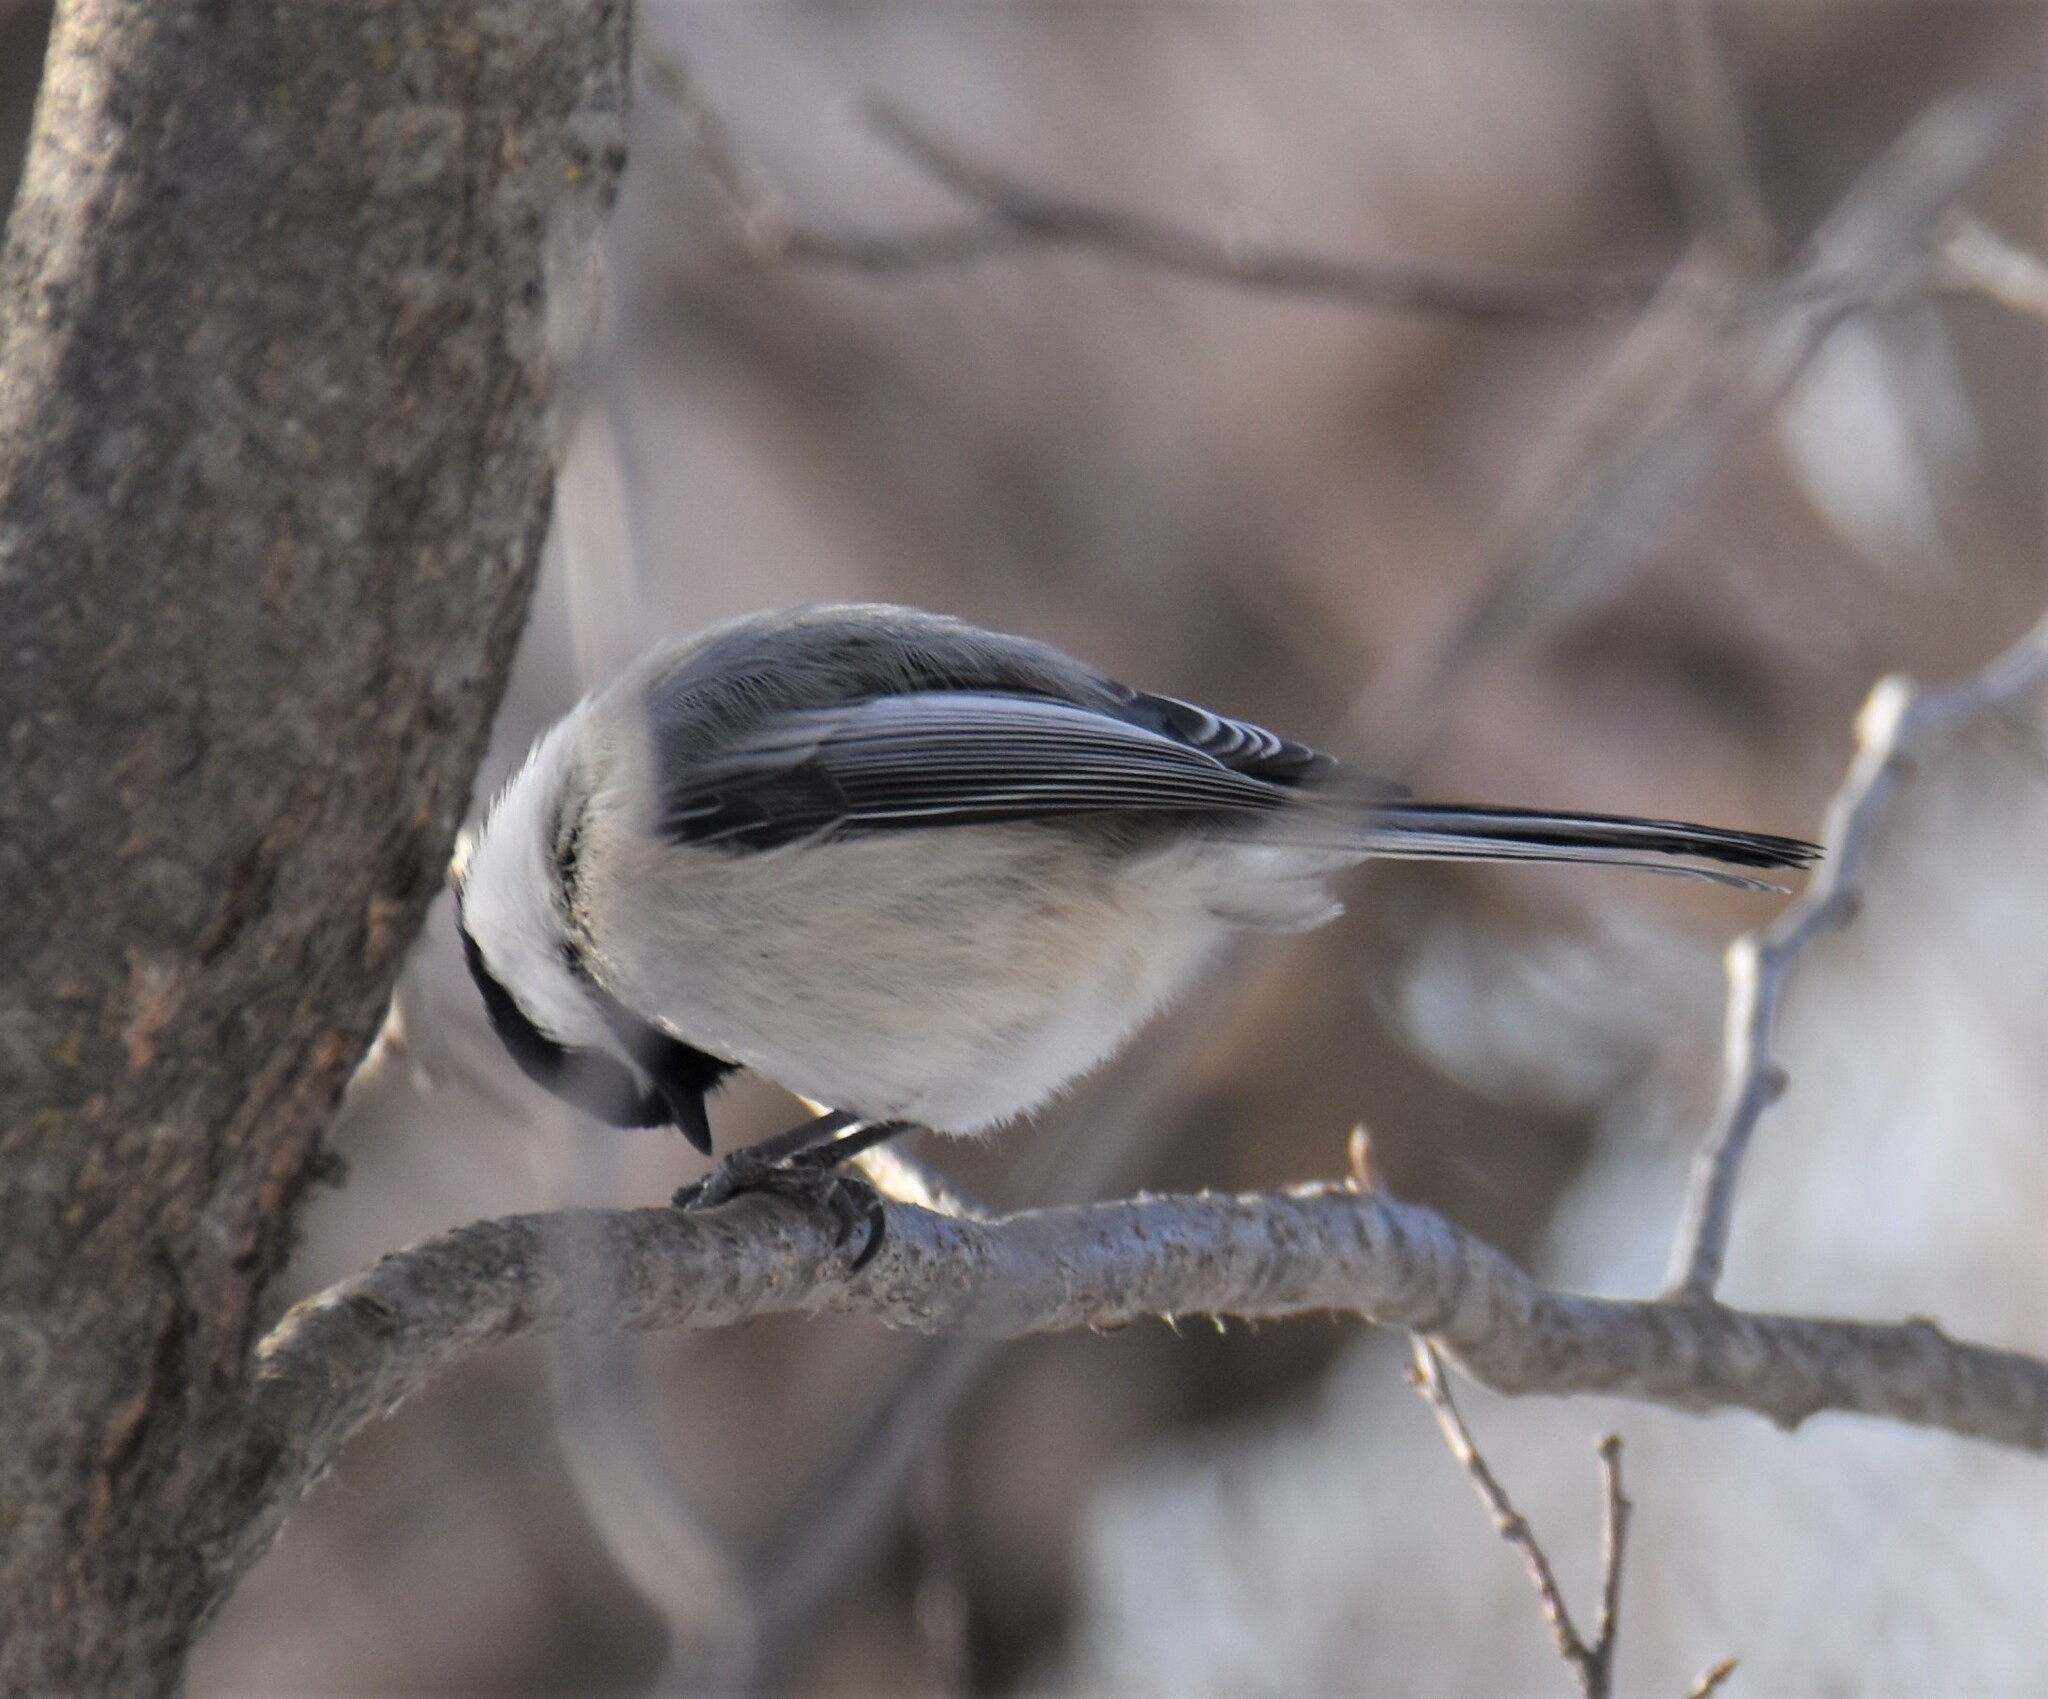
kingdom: Animalia
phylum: Chordata
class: Aves
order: Passeriformes
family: Paridae
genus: Poecile
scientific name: Poecile atricapillus
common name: Black-capped chickadee
